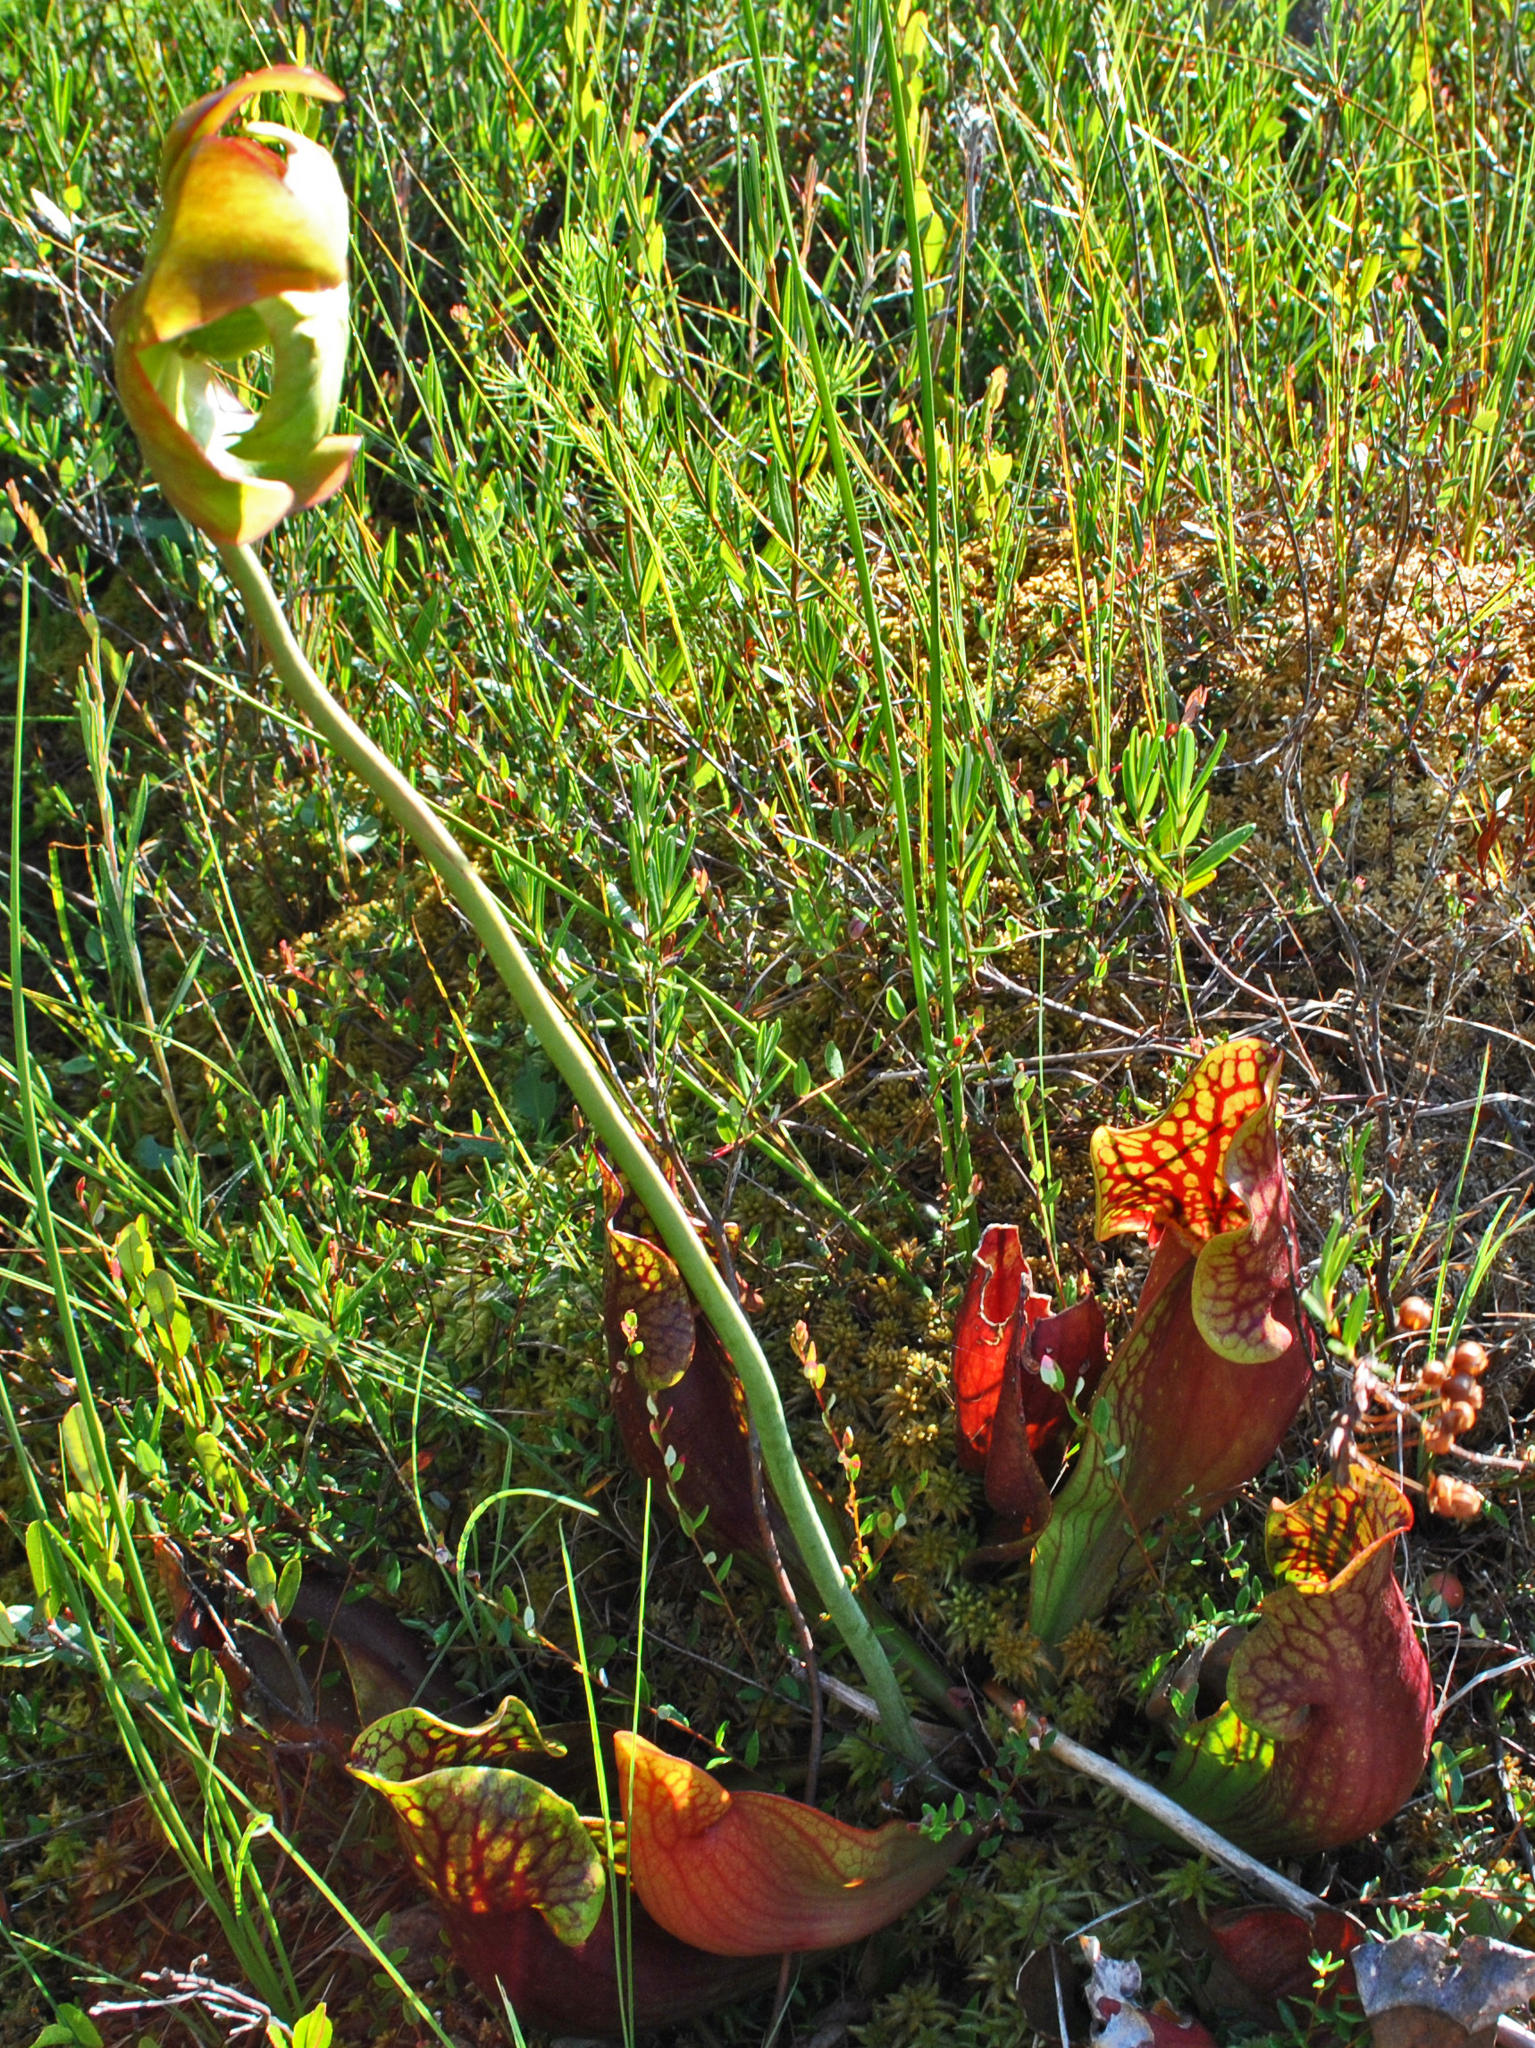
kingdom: Plantae
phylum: Tracheophyta
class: Magnoliopsida
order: Ericales
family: Sarraceniaceae
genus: Sarracenia
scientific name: Sarracenia purpurea
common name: Pitcherplant
